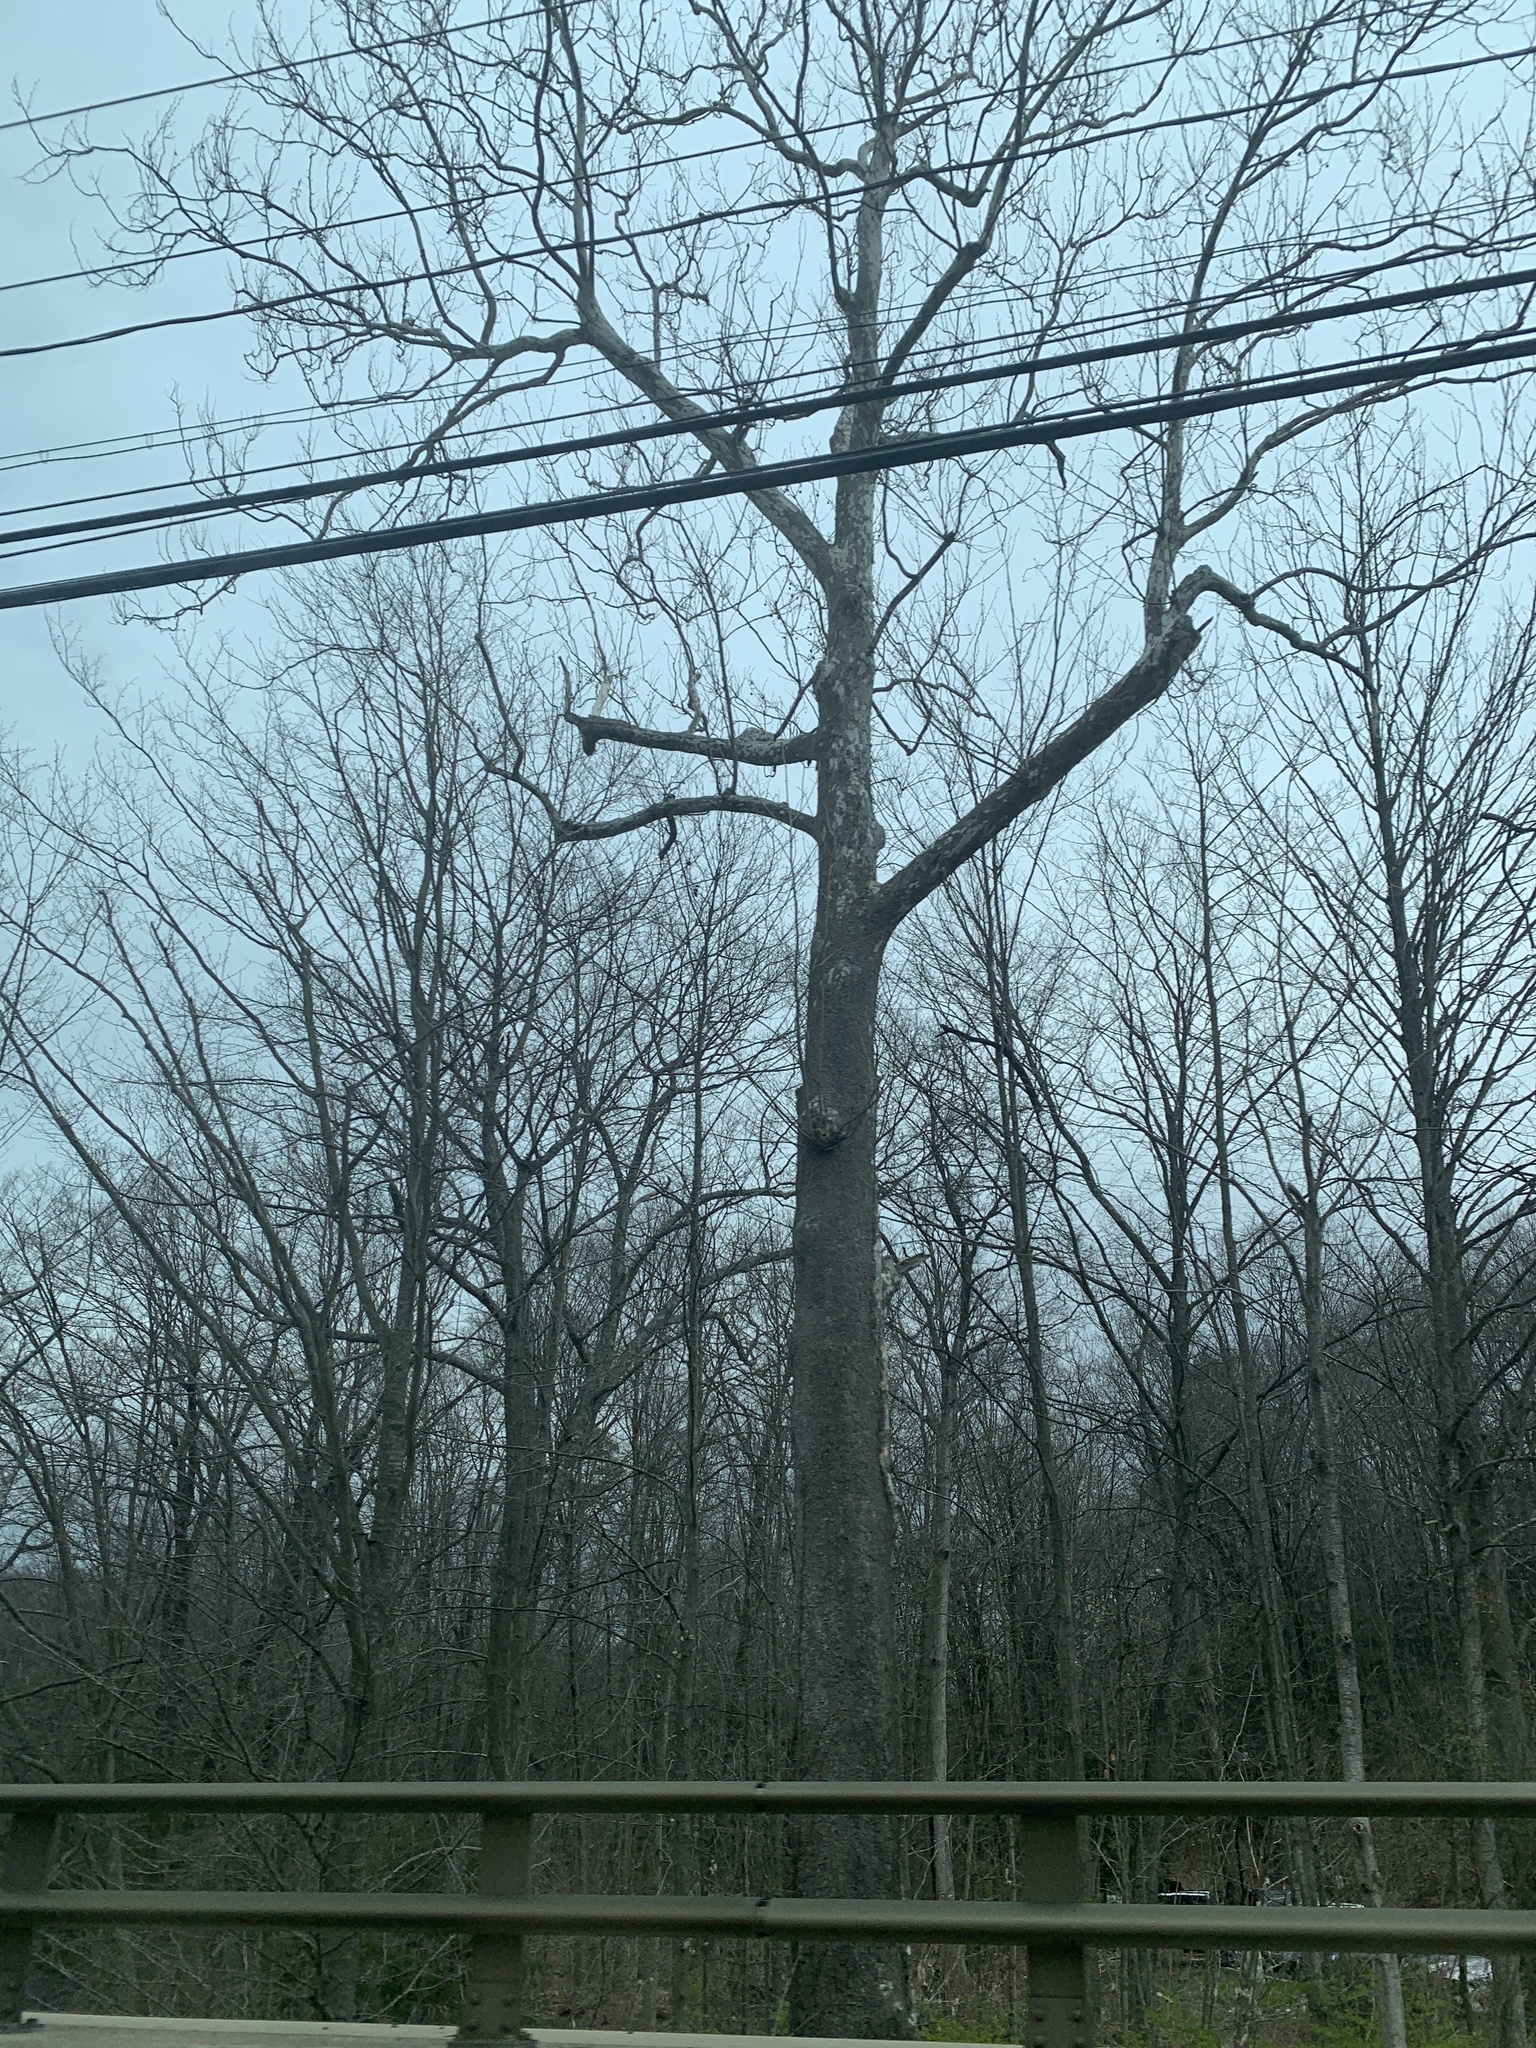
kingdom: Plantae
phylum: Tracheophyta
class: Magnoliopsida
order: Proteales
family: Platanaceae
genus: Platanus
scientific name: Platanus occidentalis
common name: American sycamore
